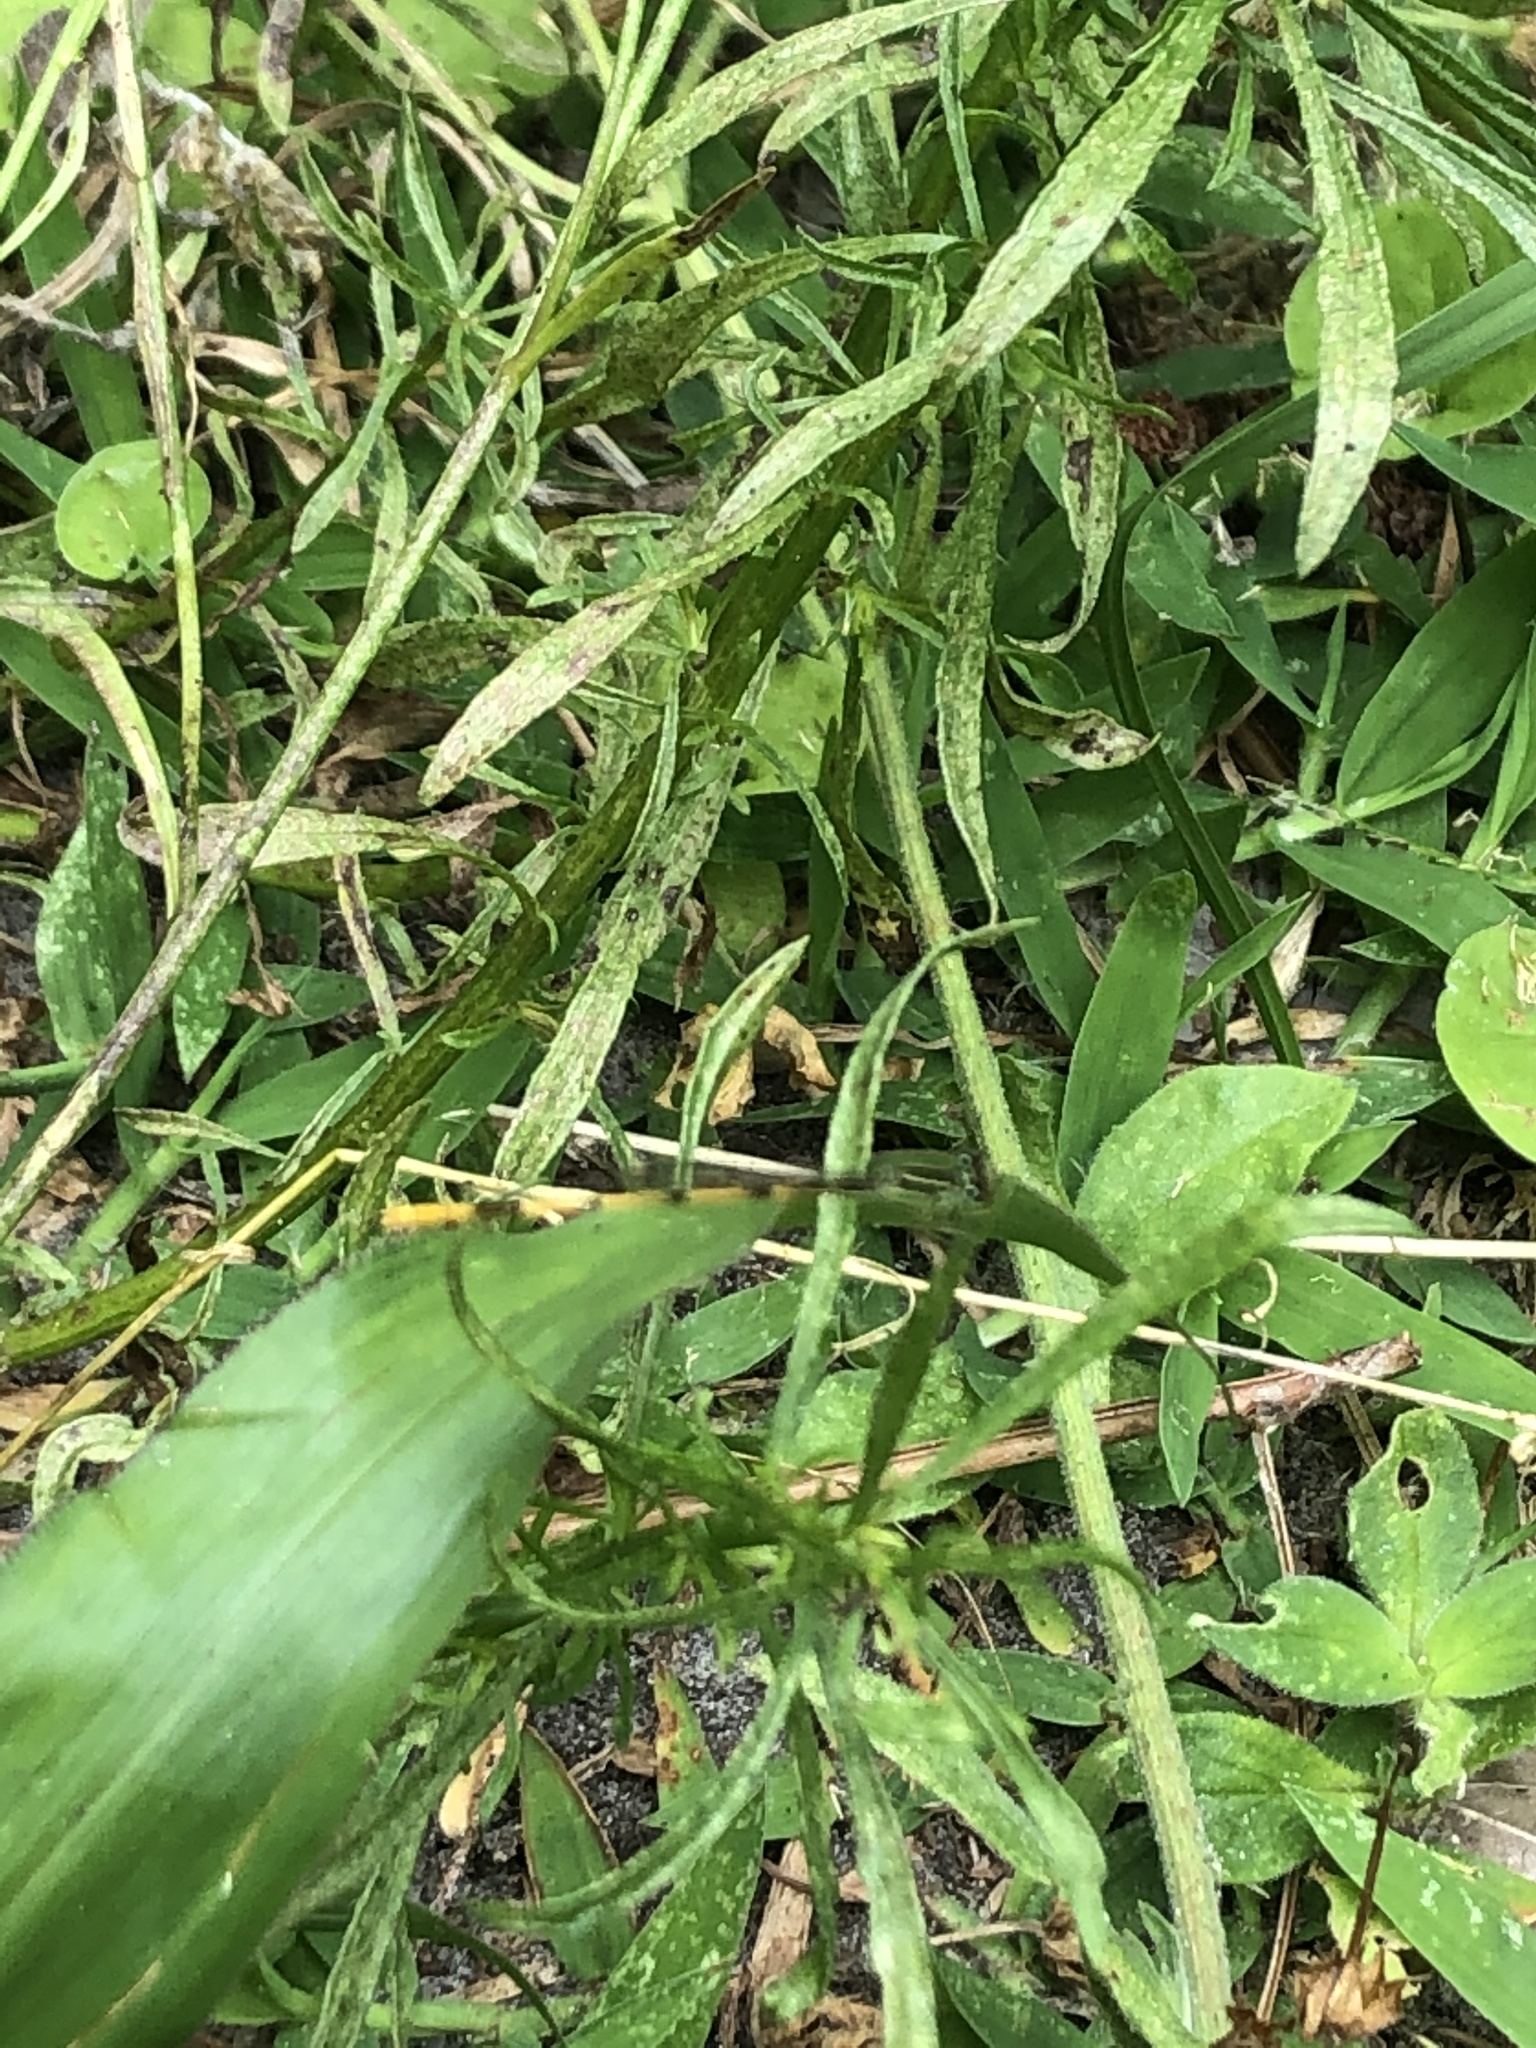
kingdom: Animalia
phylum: Arthropoda
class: Insecta
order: Odonata
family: Coenagrionidae
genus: Ischnura
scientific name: Ischnura hastata
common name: Citrine forktail
